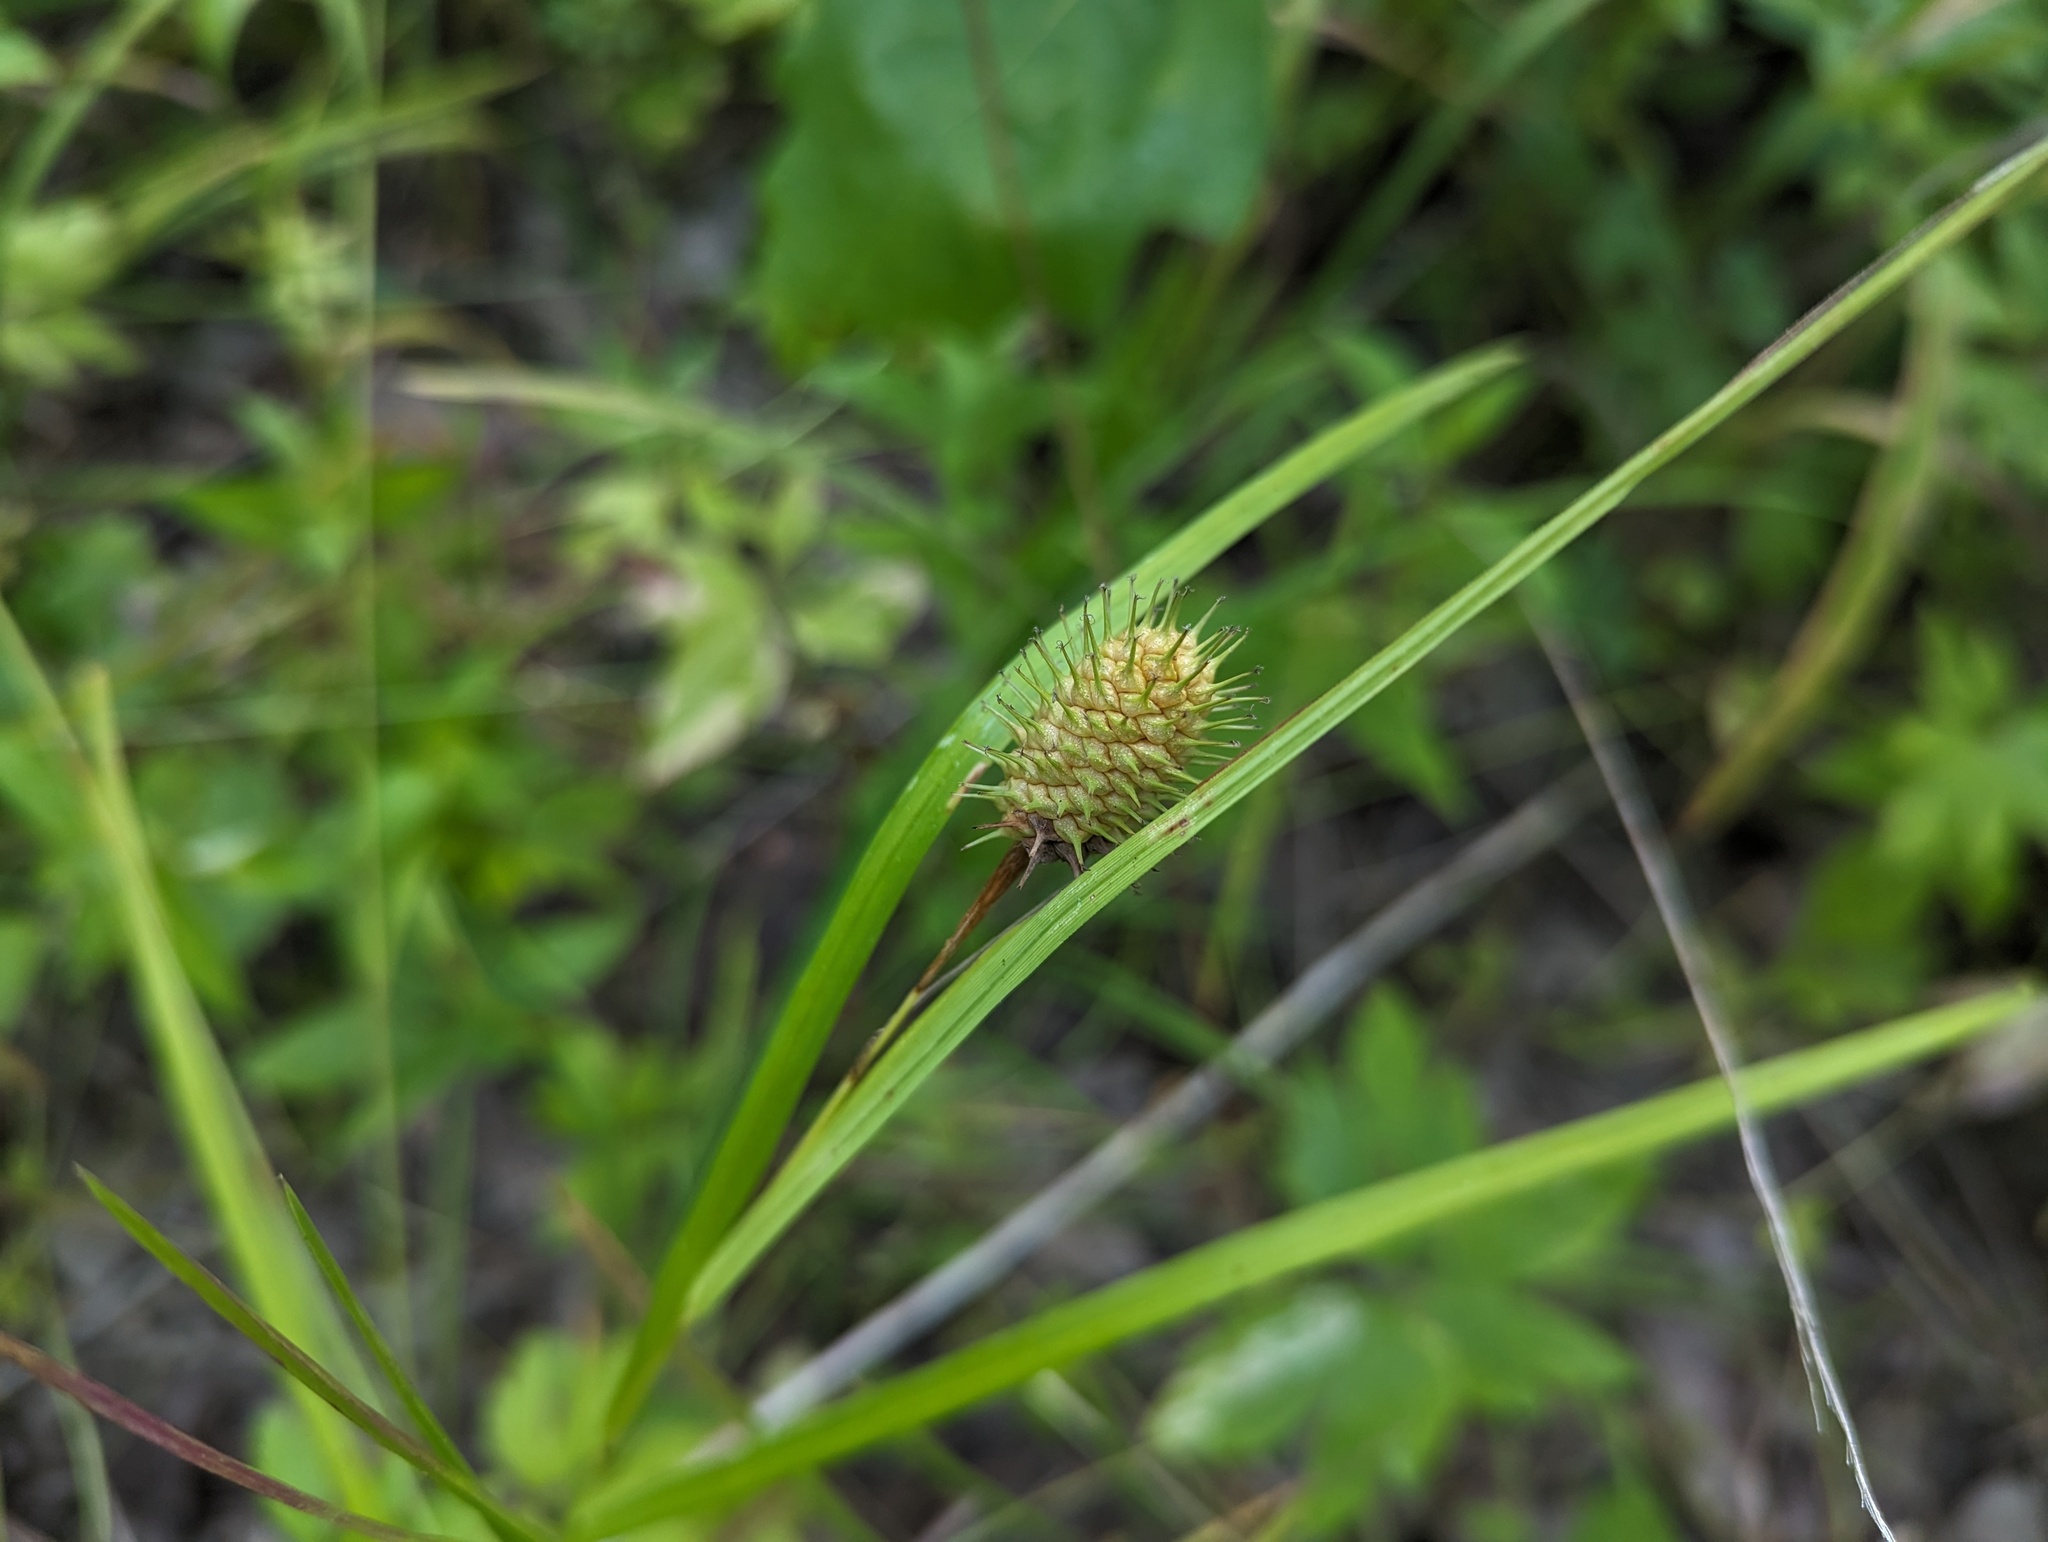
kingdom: Plantae
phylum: Tracheophyta
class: Liliopsida
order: Poales
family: Cyperaceae
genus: Carex
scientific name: Carex squarrosa
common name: Narrow-leaved cattail sedge
